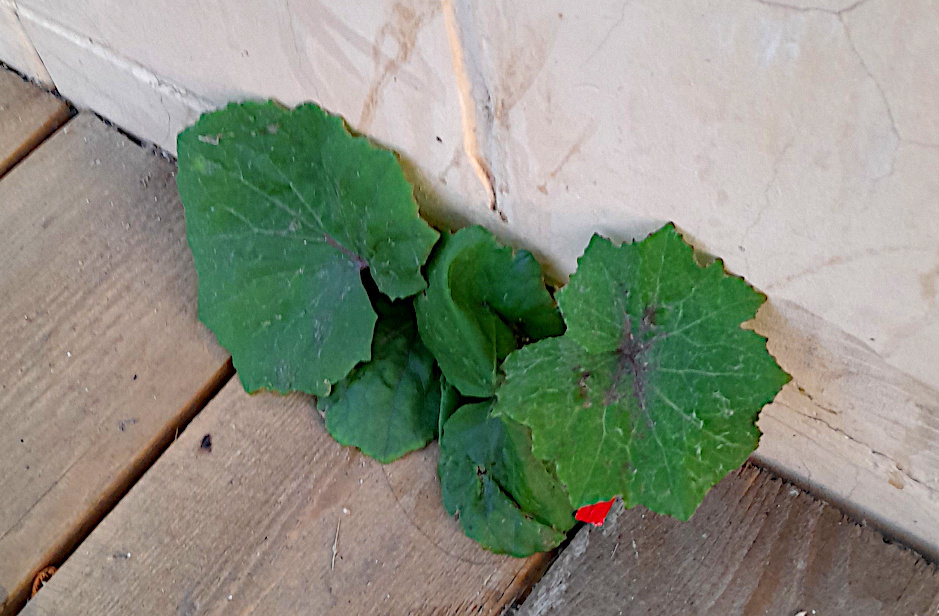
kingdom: Plantae
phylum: Tracheophyta
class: Magnoliopsida
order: Asterales
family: Asteraceae
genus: Tussilago
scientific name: Tussilago farfara
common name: Coltsfoot
